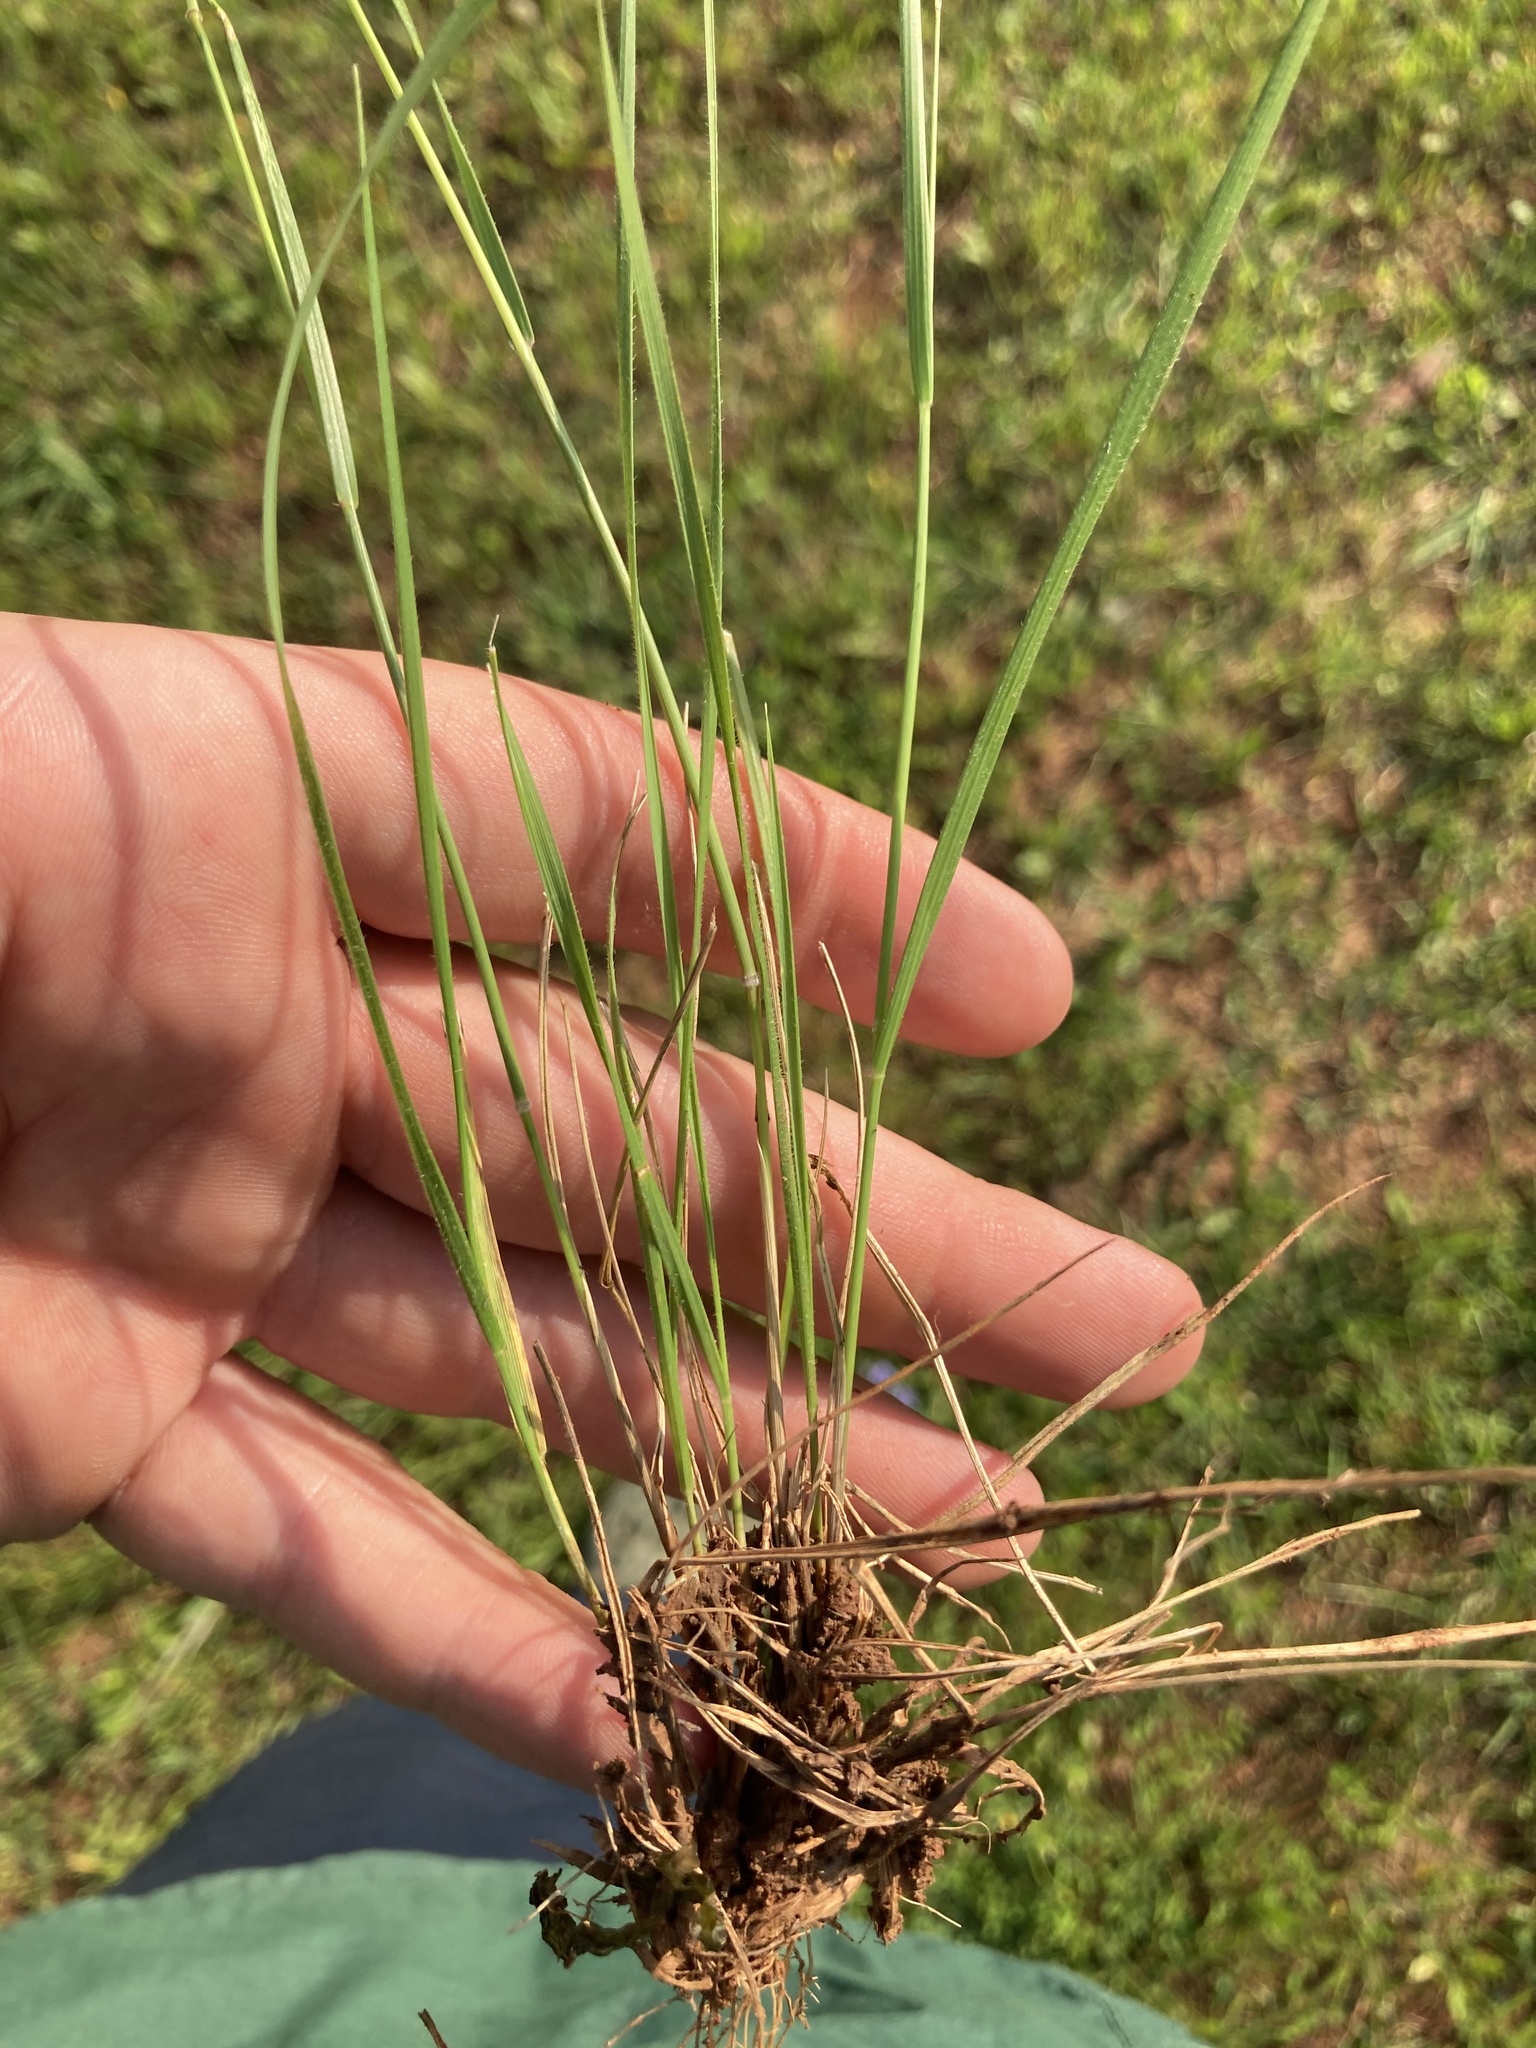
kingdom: Plantae
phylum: Tracheophyta
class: Liliopsida
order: Poales
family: Poaceae
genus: Nassella
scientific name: Nassella leucotricha
